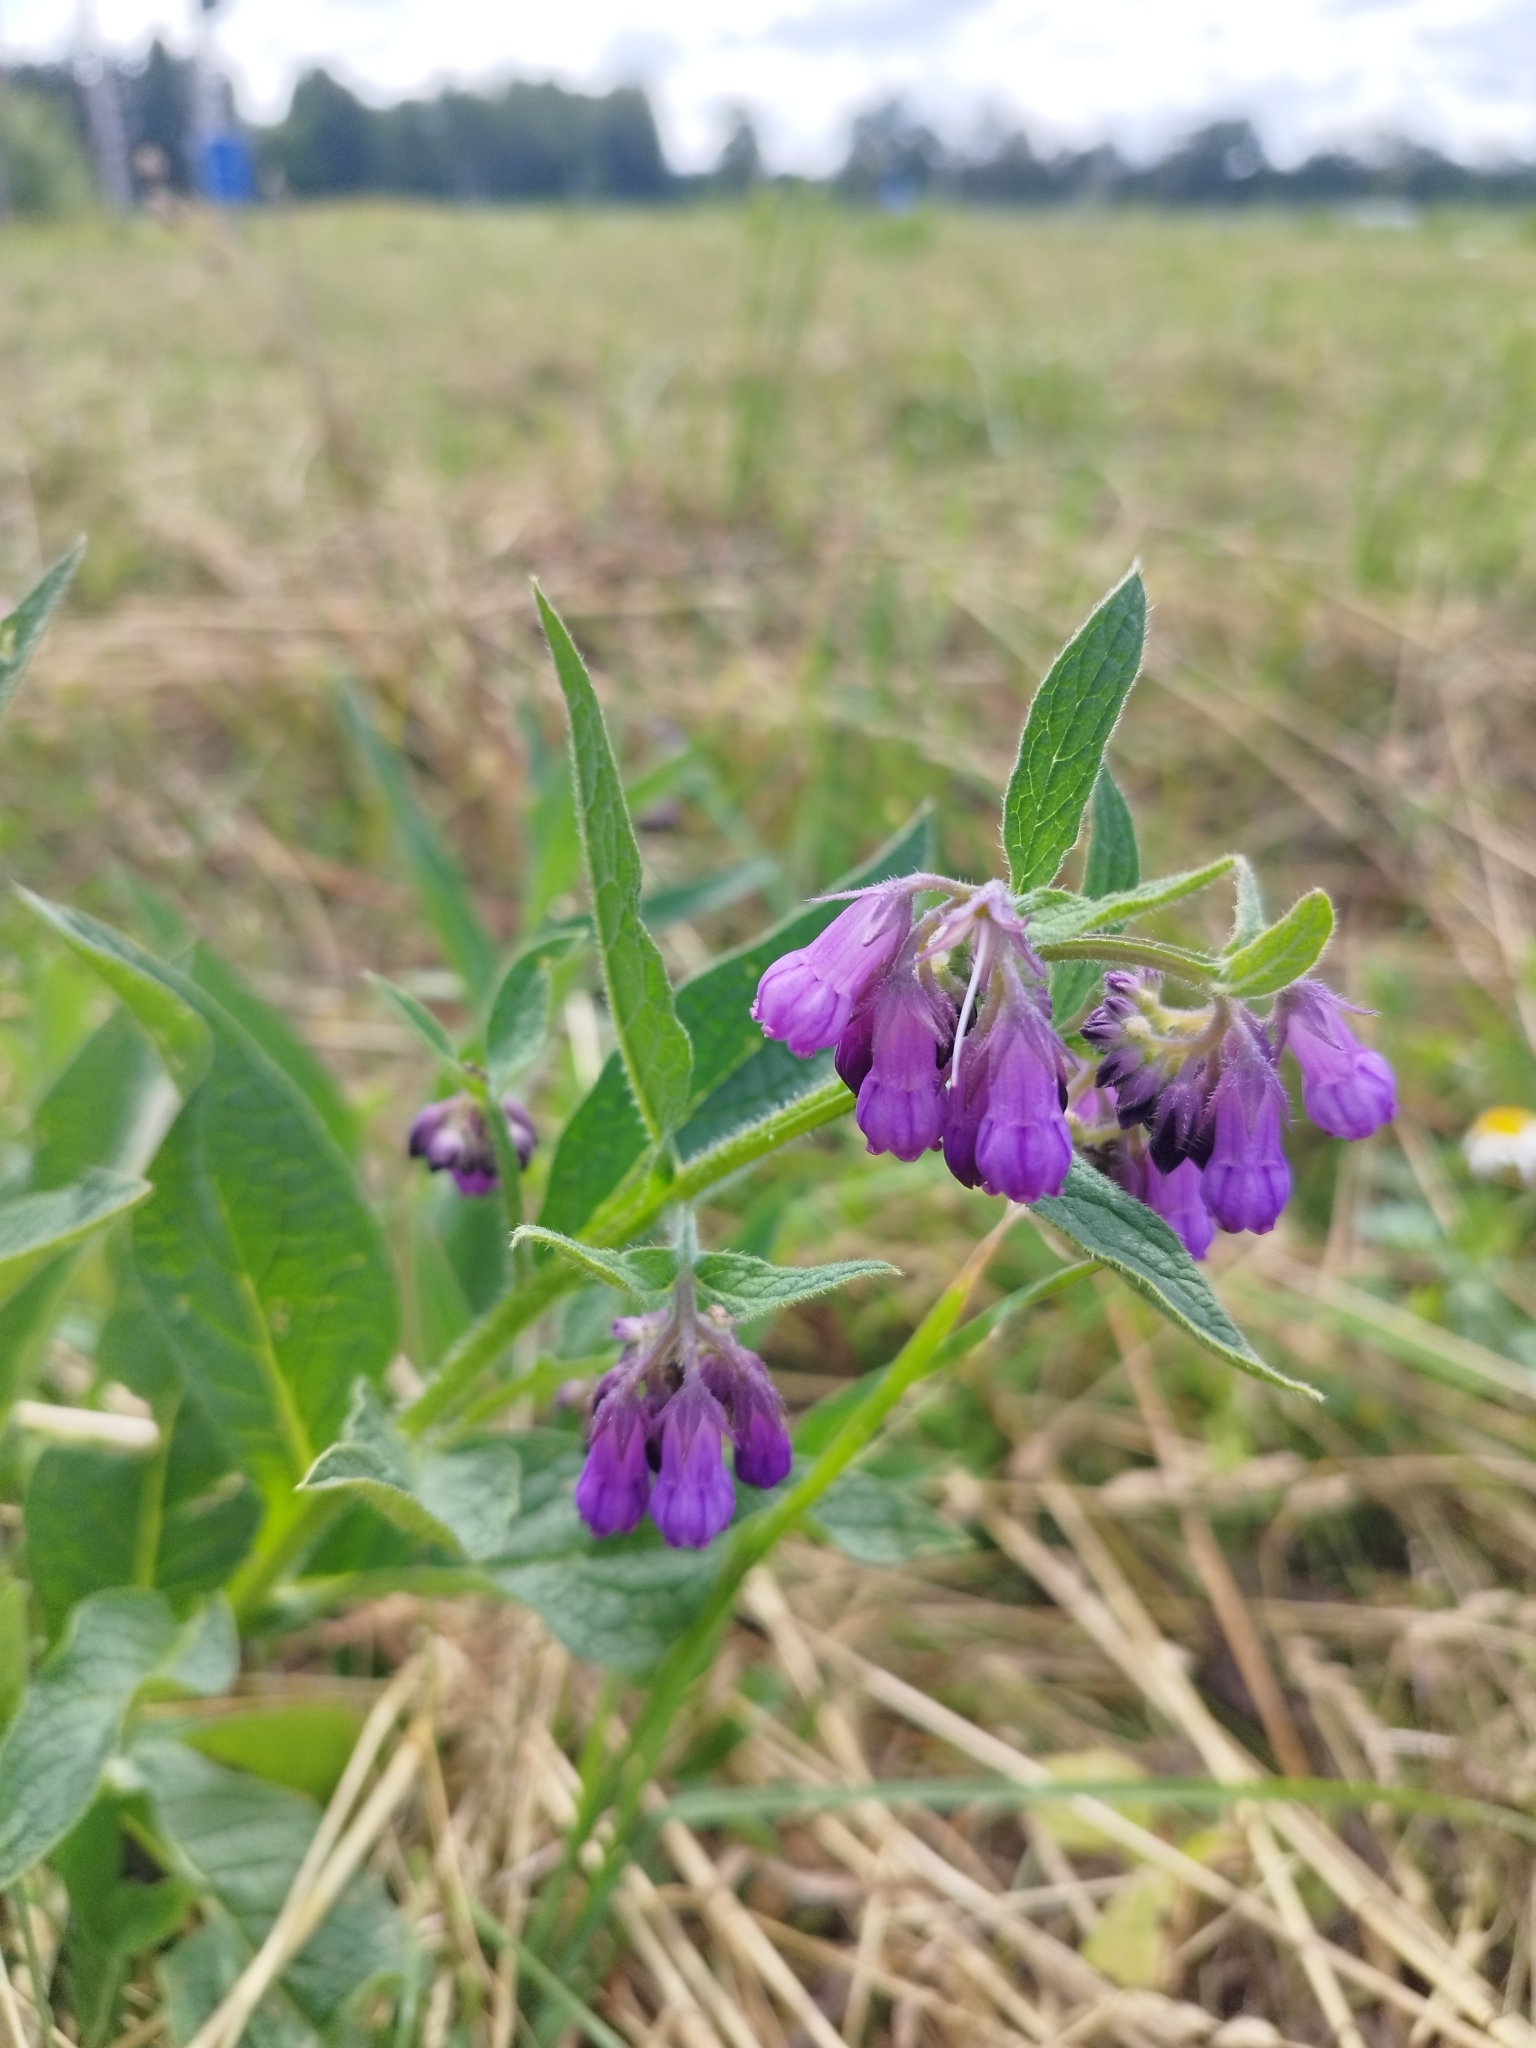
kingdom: Plantae
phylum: Tracheophyta
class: Magnoliopsida
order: Boraginales
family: Boraginaceae
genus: Symphytum
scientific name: Symphytum officinale
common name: Common comfrey
